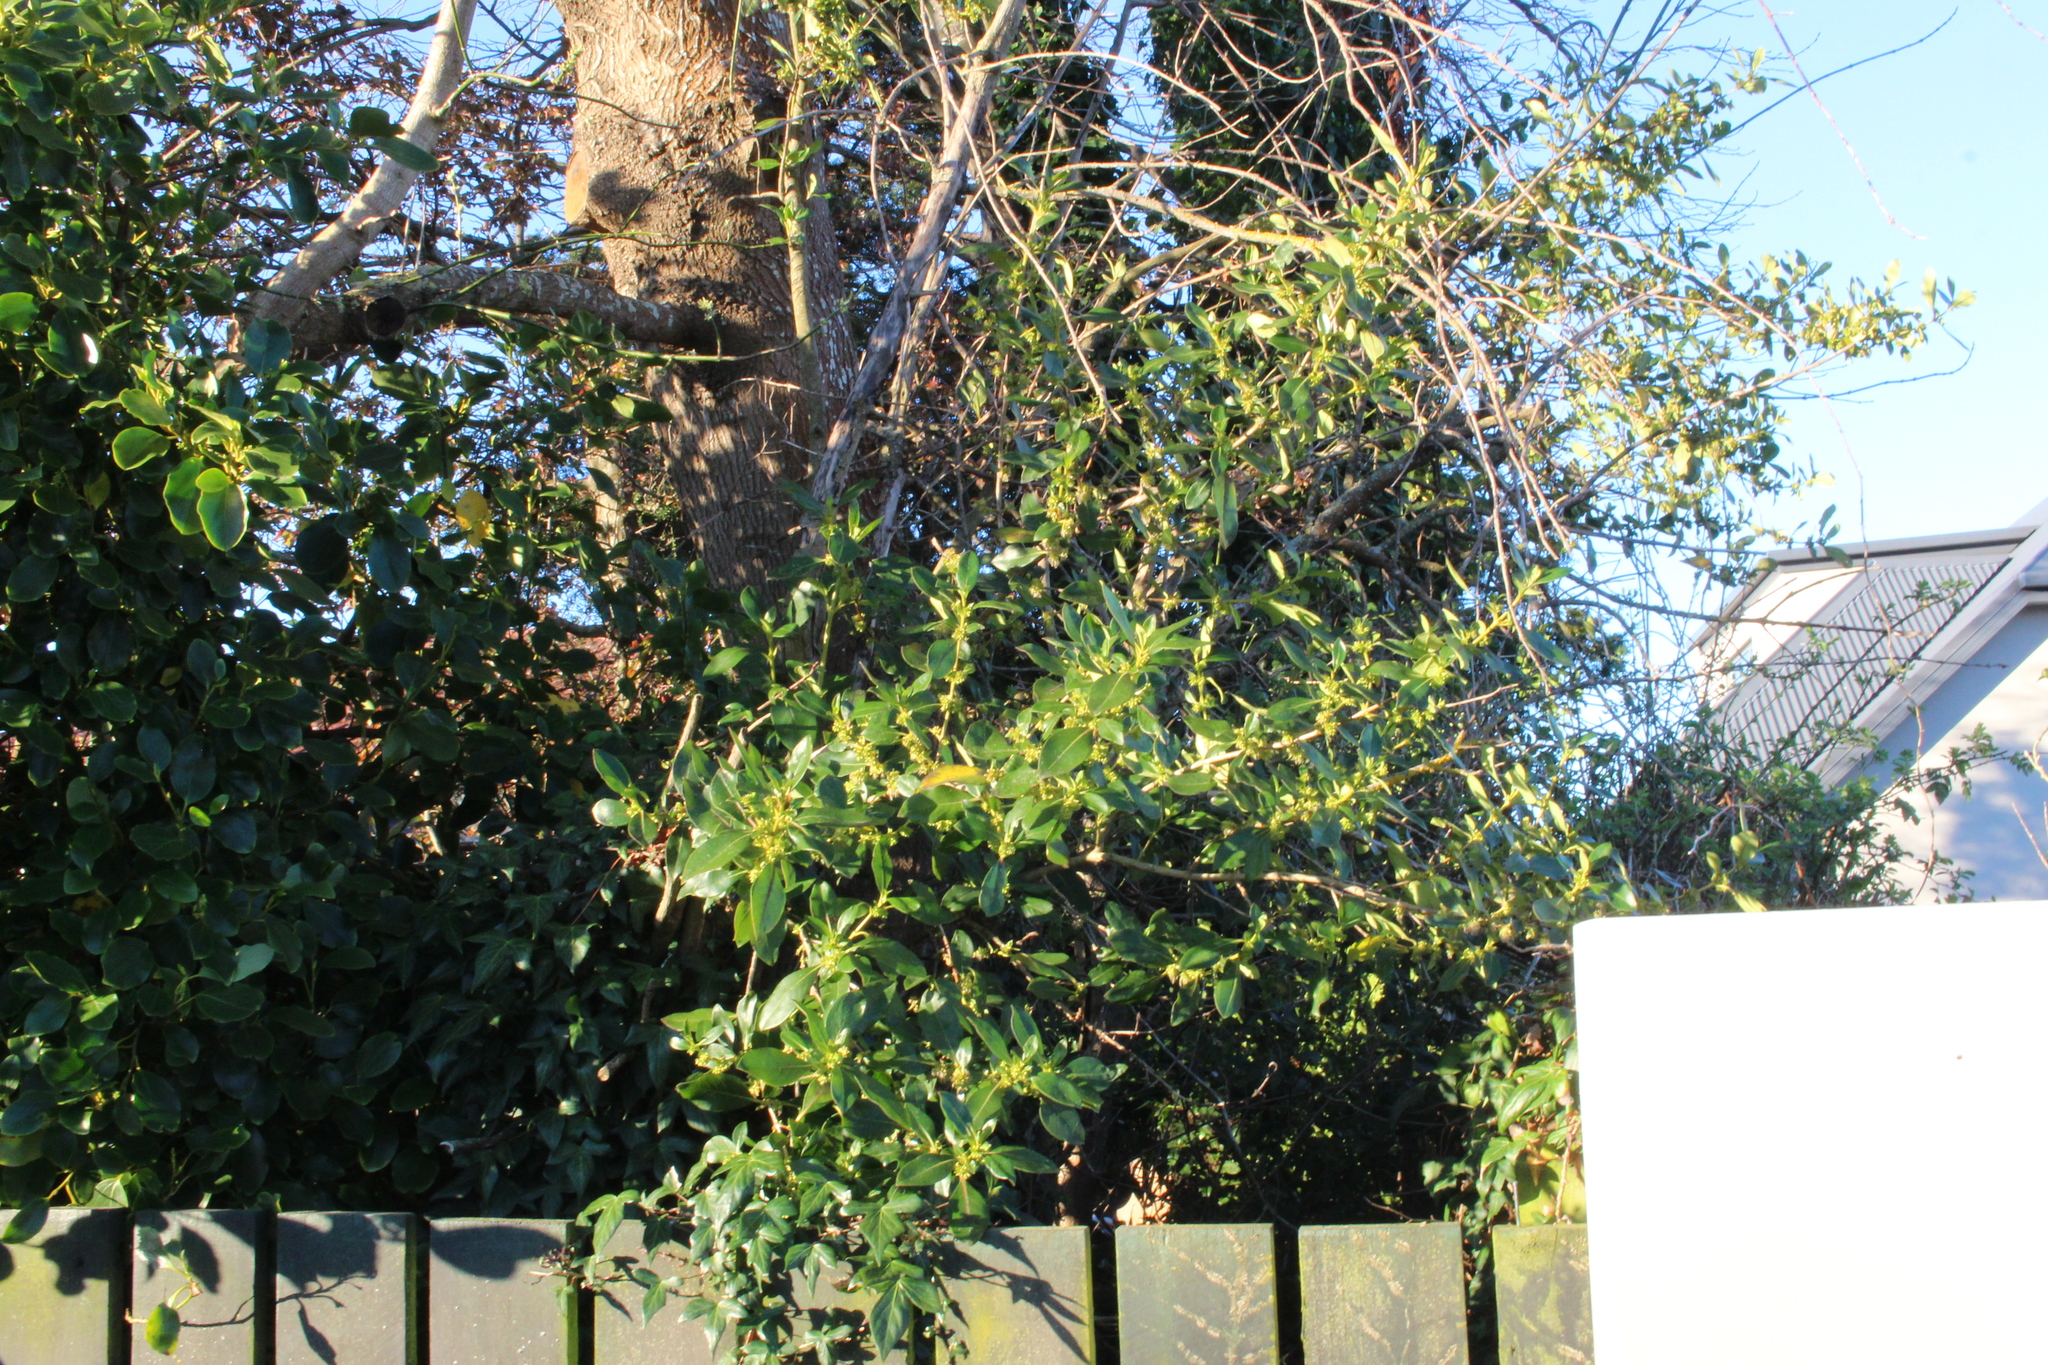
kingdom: Plantae
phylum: Tracheophyta
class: Magnoliopsida
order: Gentianales
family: Rubiaceae
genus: Coprosma
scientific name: Coprosma robusta
